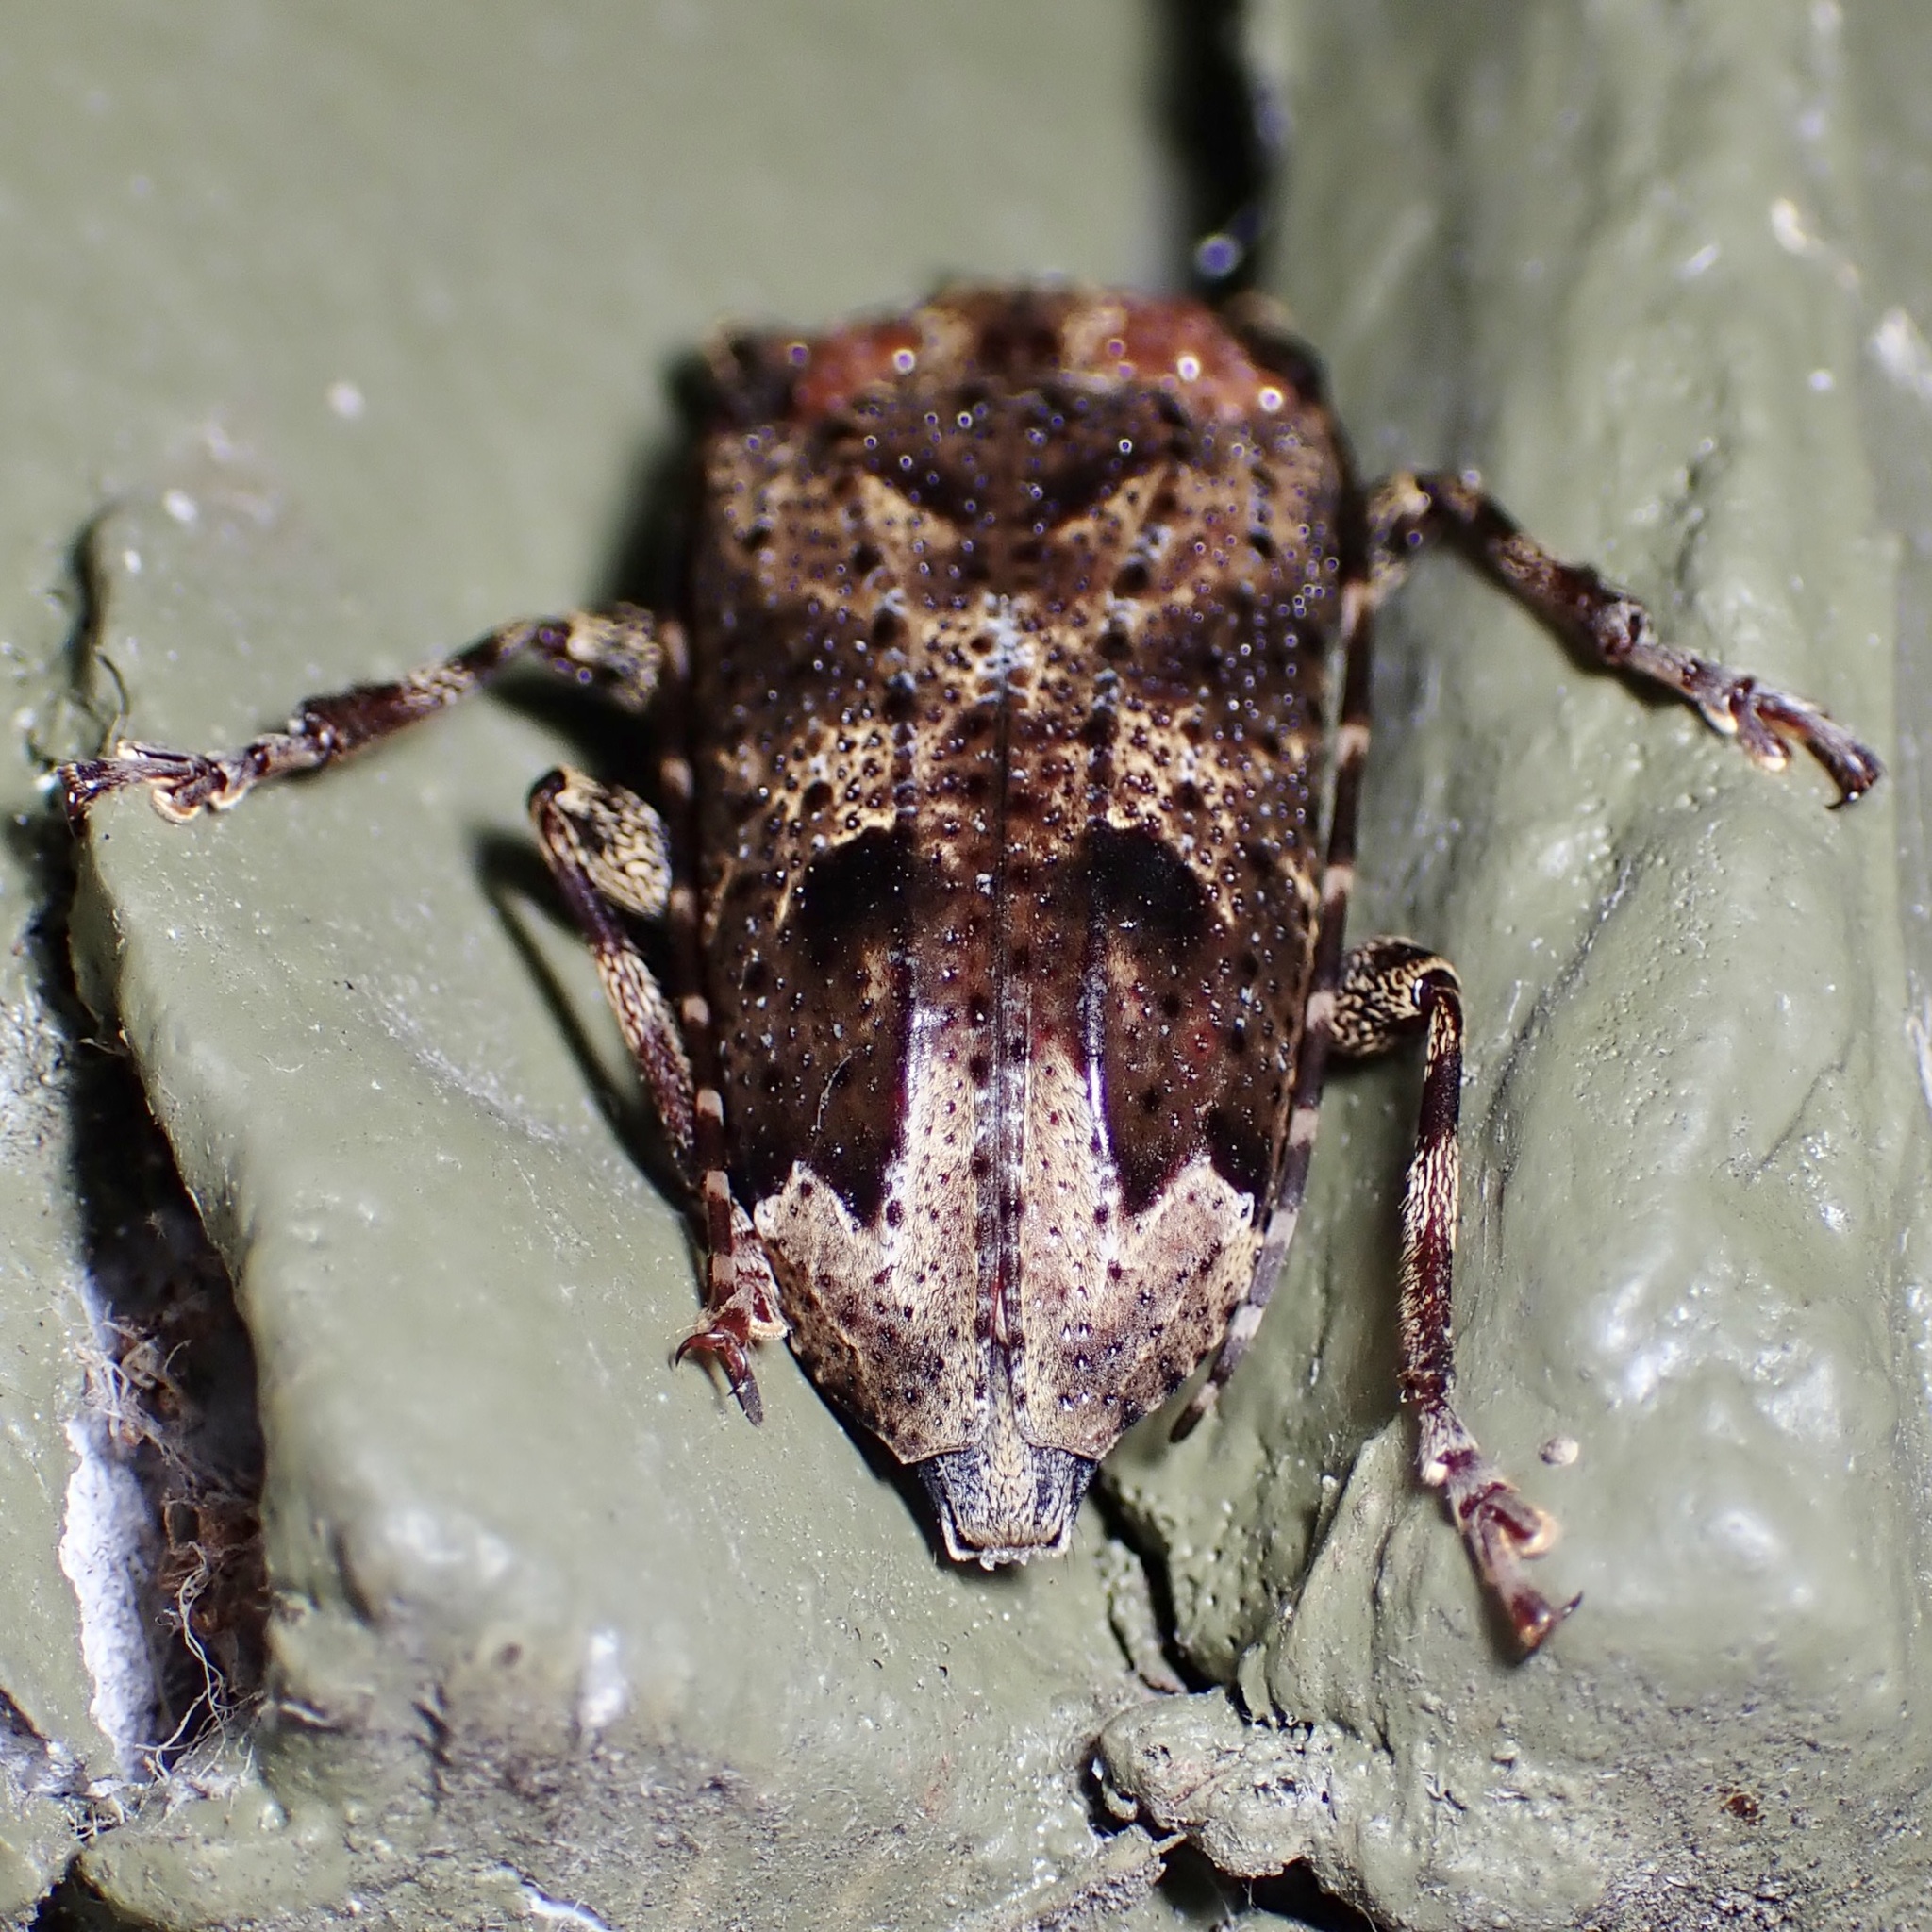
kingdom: Animalia
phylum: Arthropoda
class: Insecta
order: Coleoptera
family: Cerambycidae
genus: Trypanidius
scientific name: Trypanidius mexicanus
